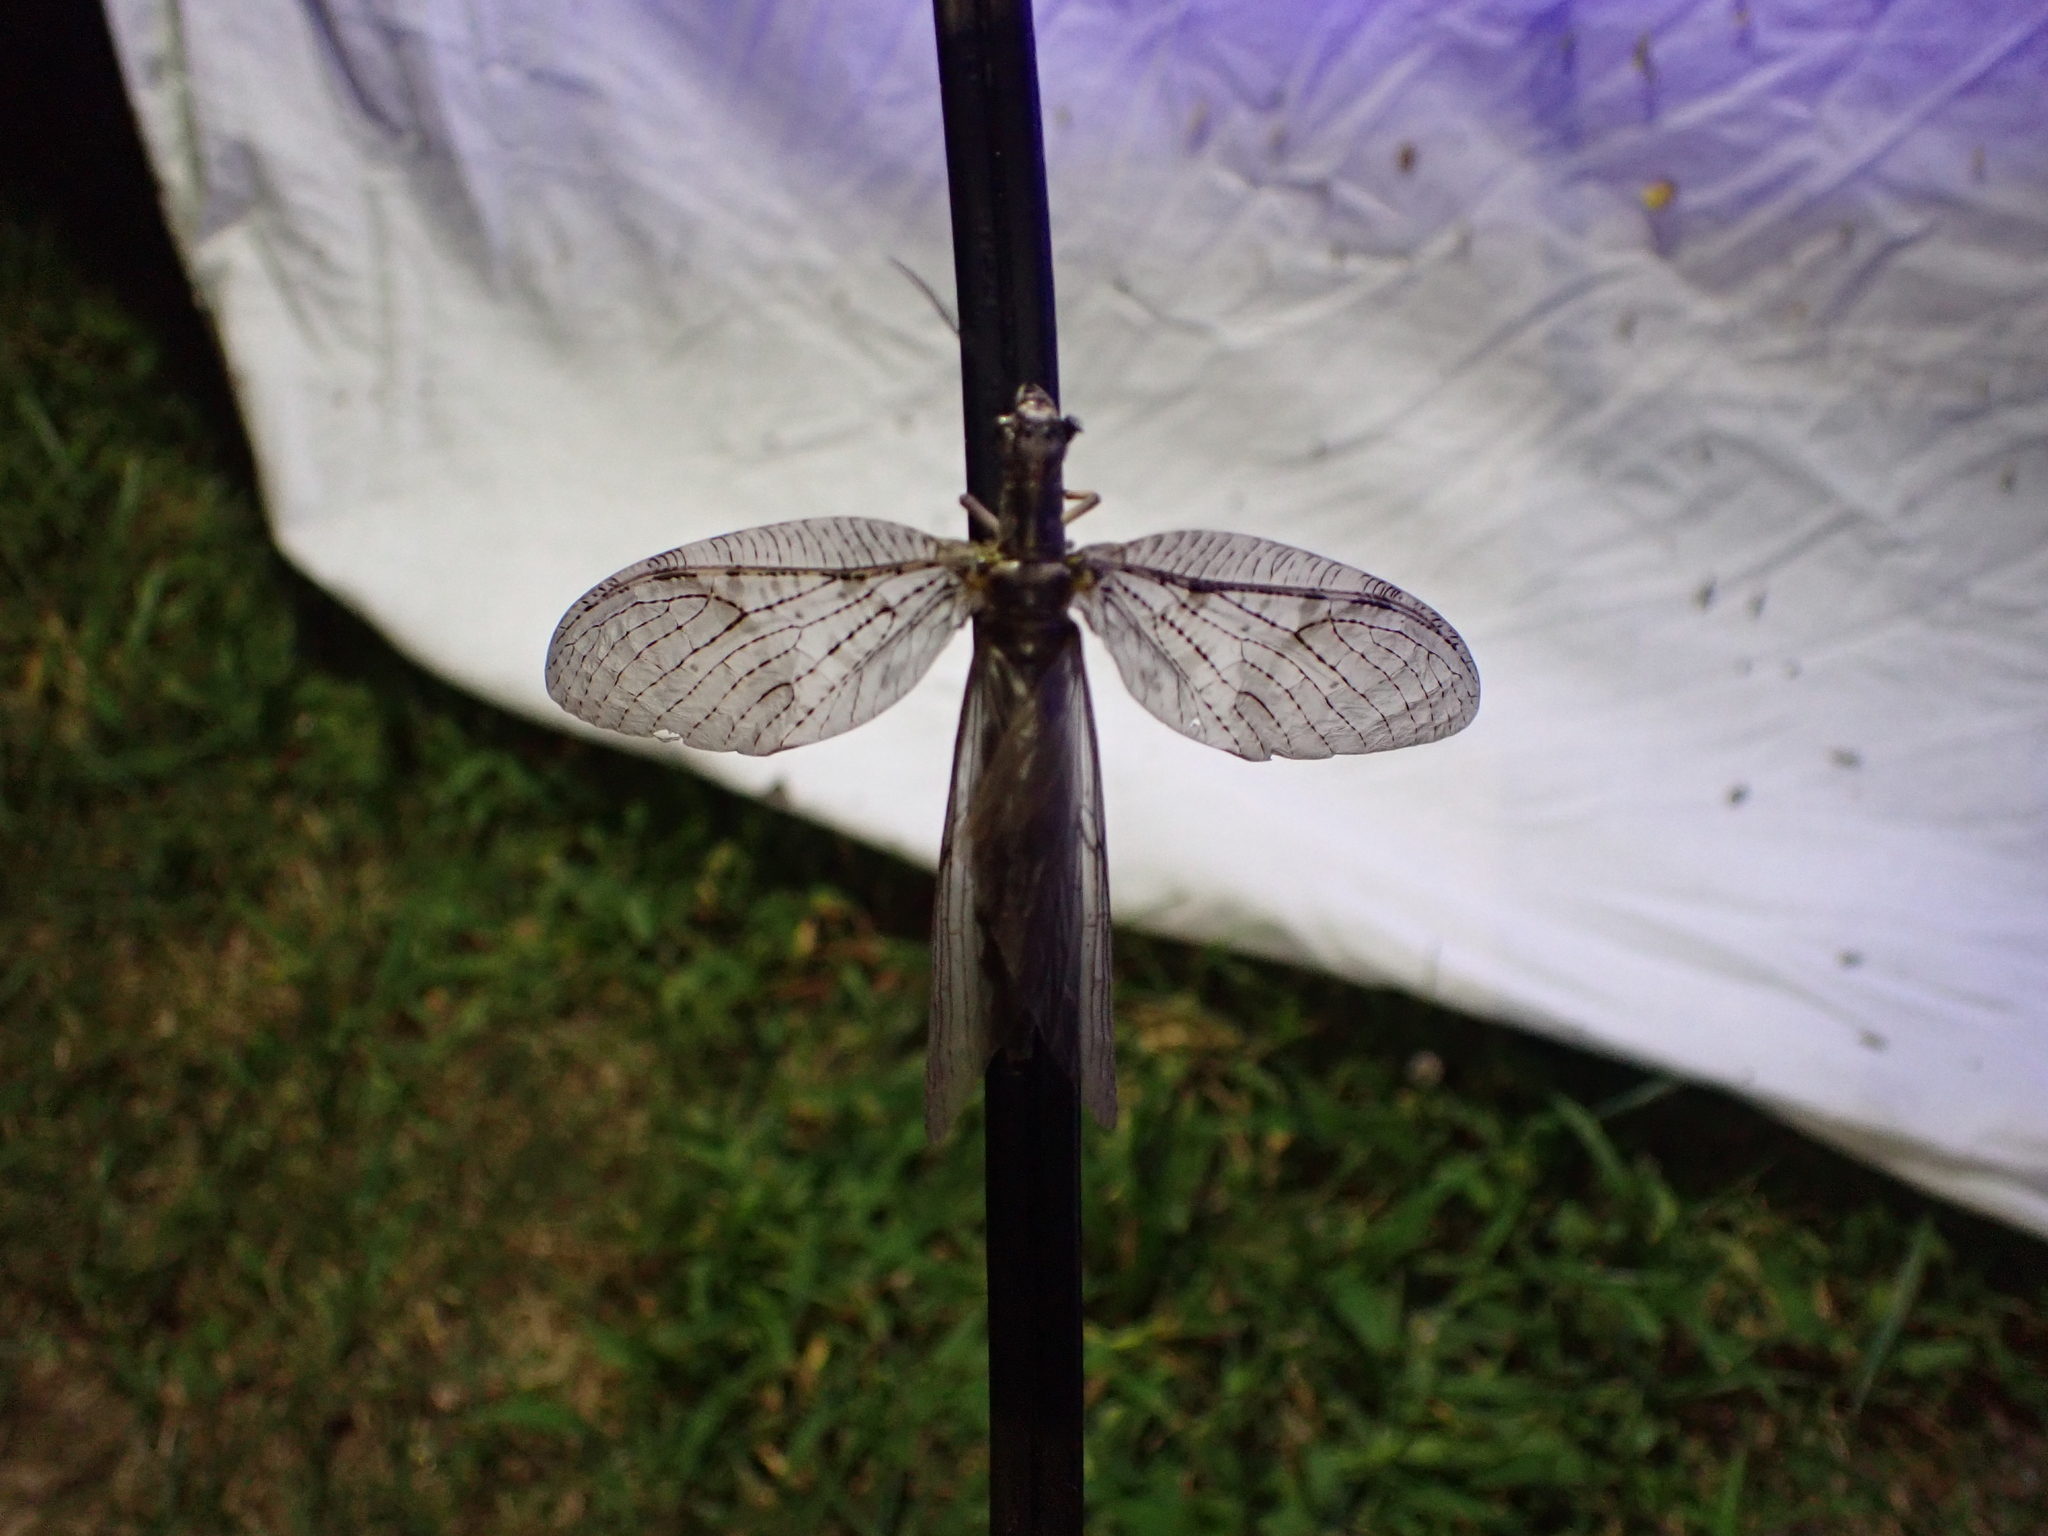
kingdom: Animalia
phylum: Arthropoda
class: Insecta
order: Megaloptera
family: Corydalidae
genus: Chauliodes
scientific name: Chauliodes pectinicornis
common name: Summer fishfly
